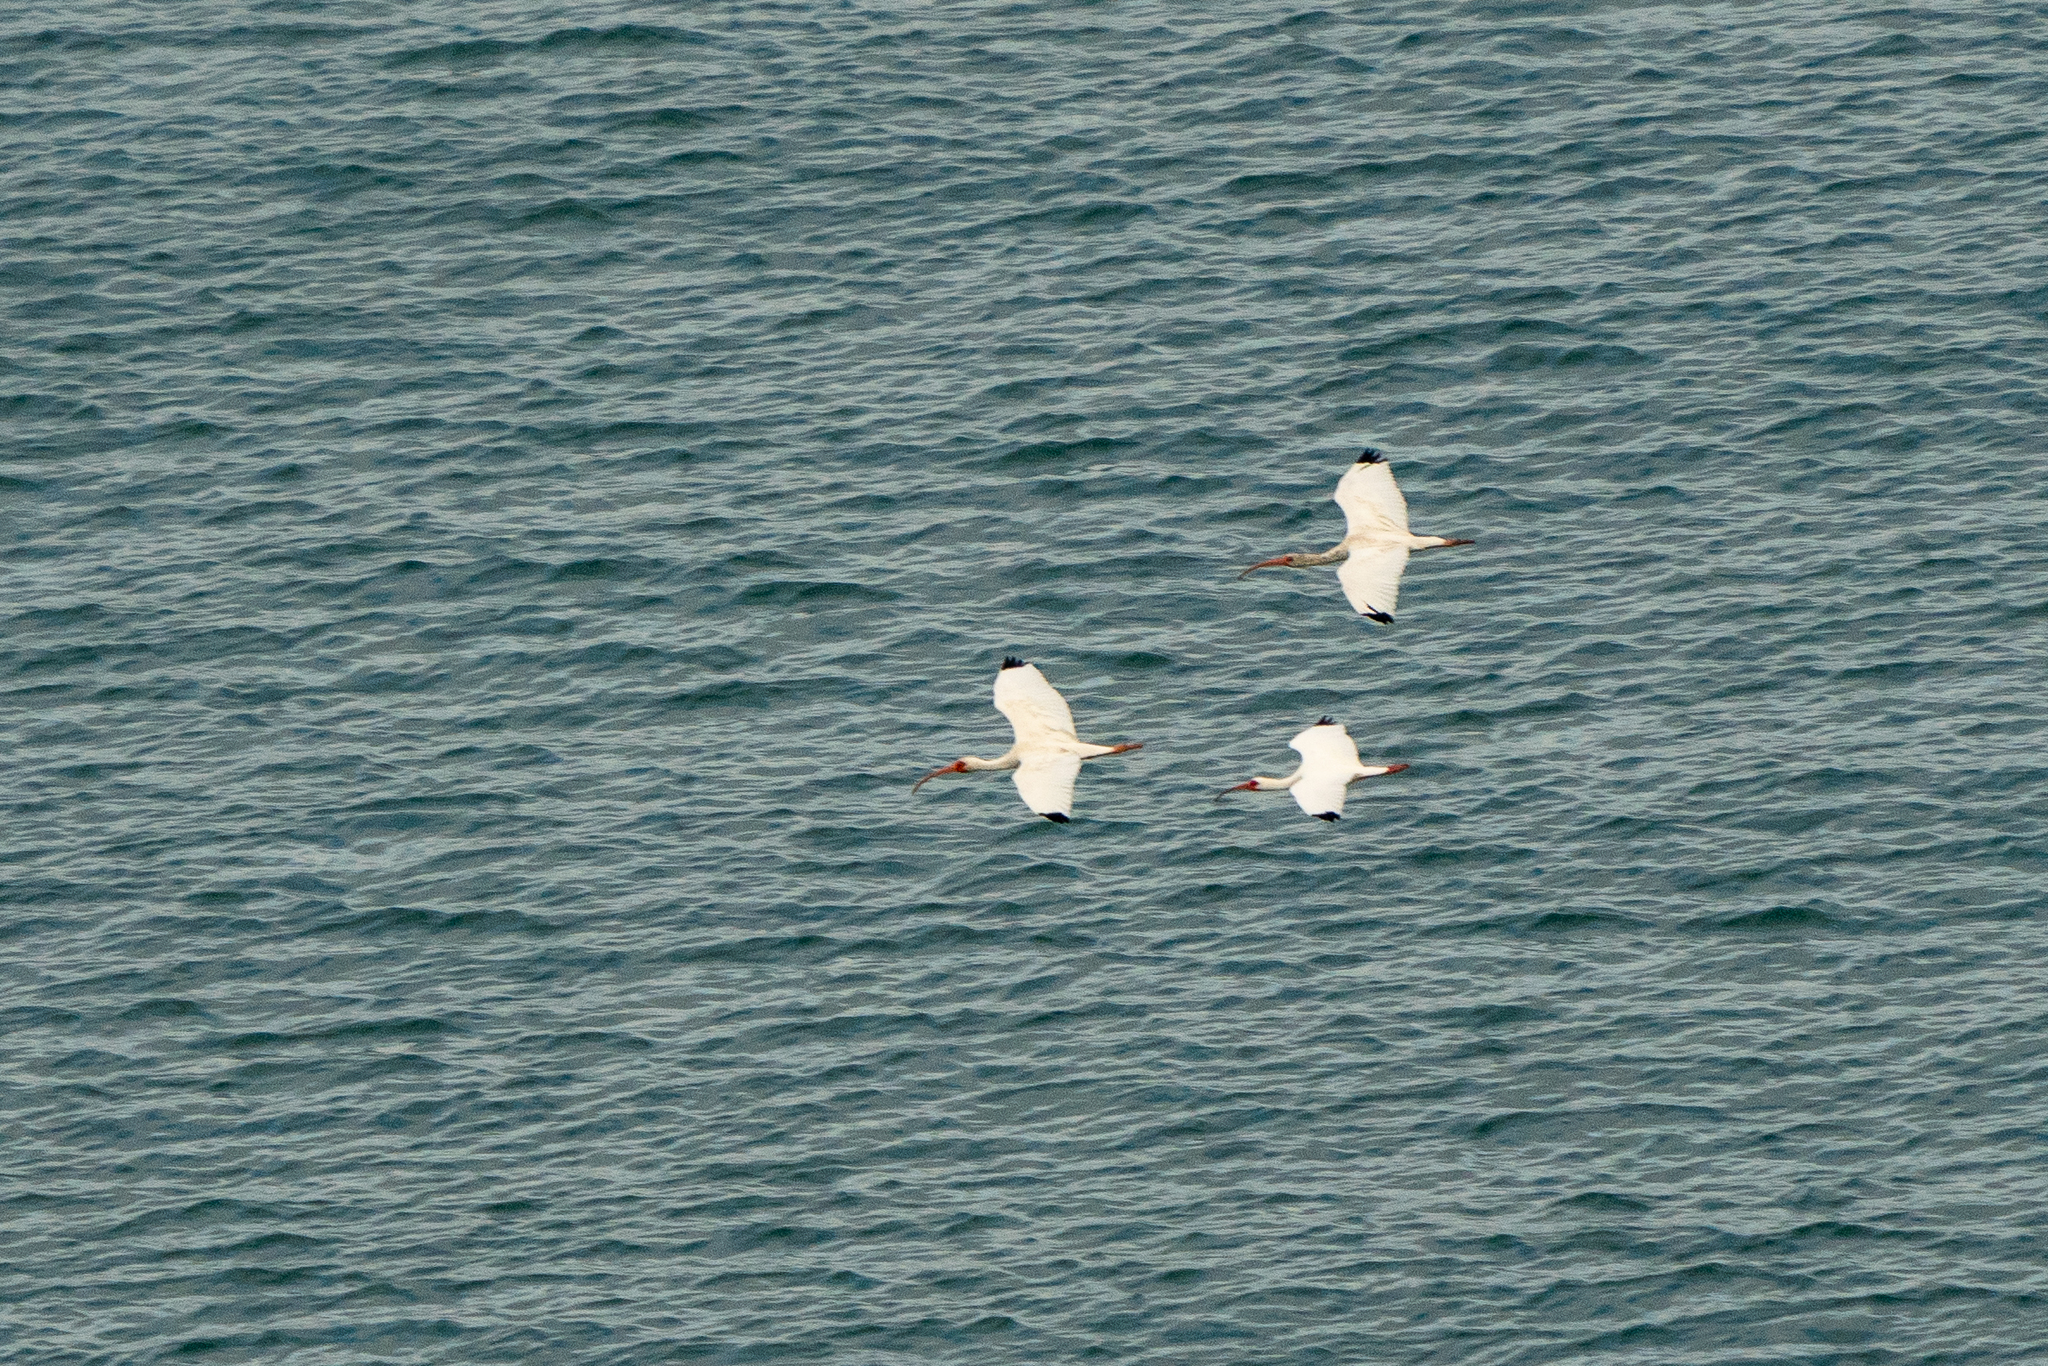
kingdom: Animalia
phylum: Chordata
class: Aves
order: Pelecaniformes
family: Threskiornithidae
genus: Eudocimus
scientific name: Eudocimus albus
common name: White ibis
